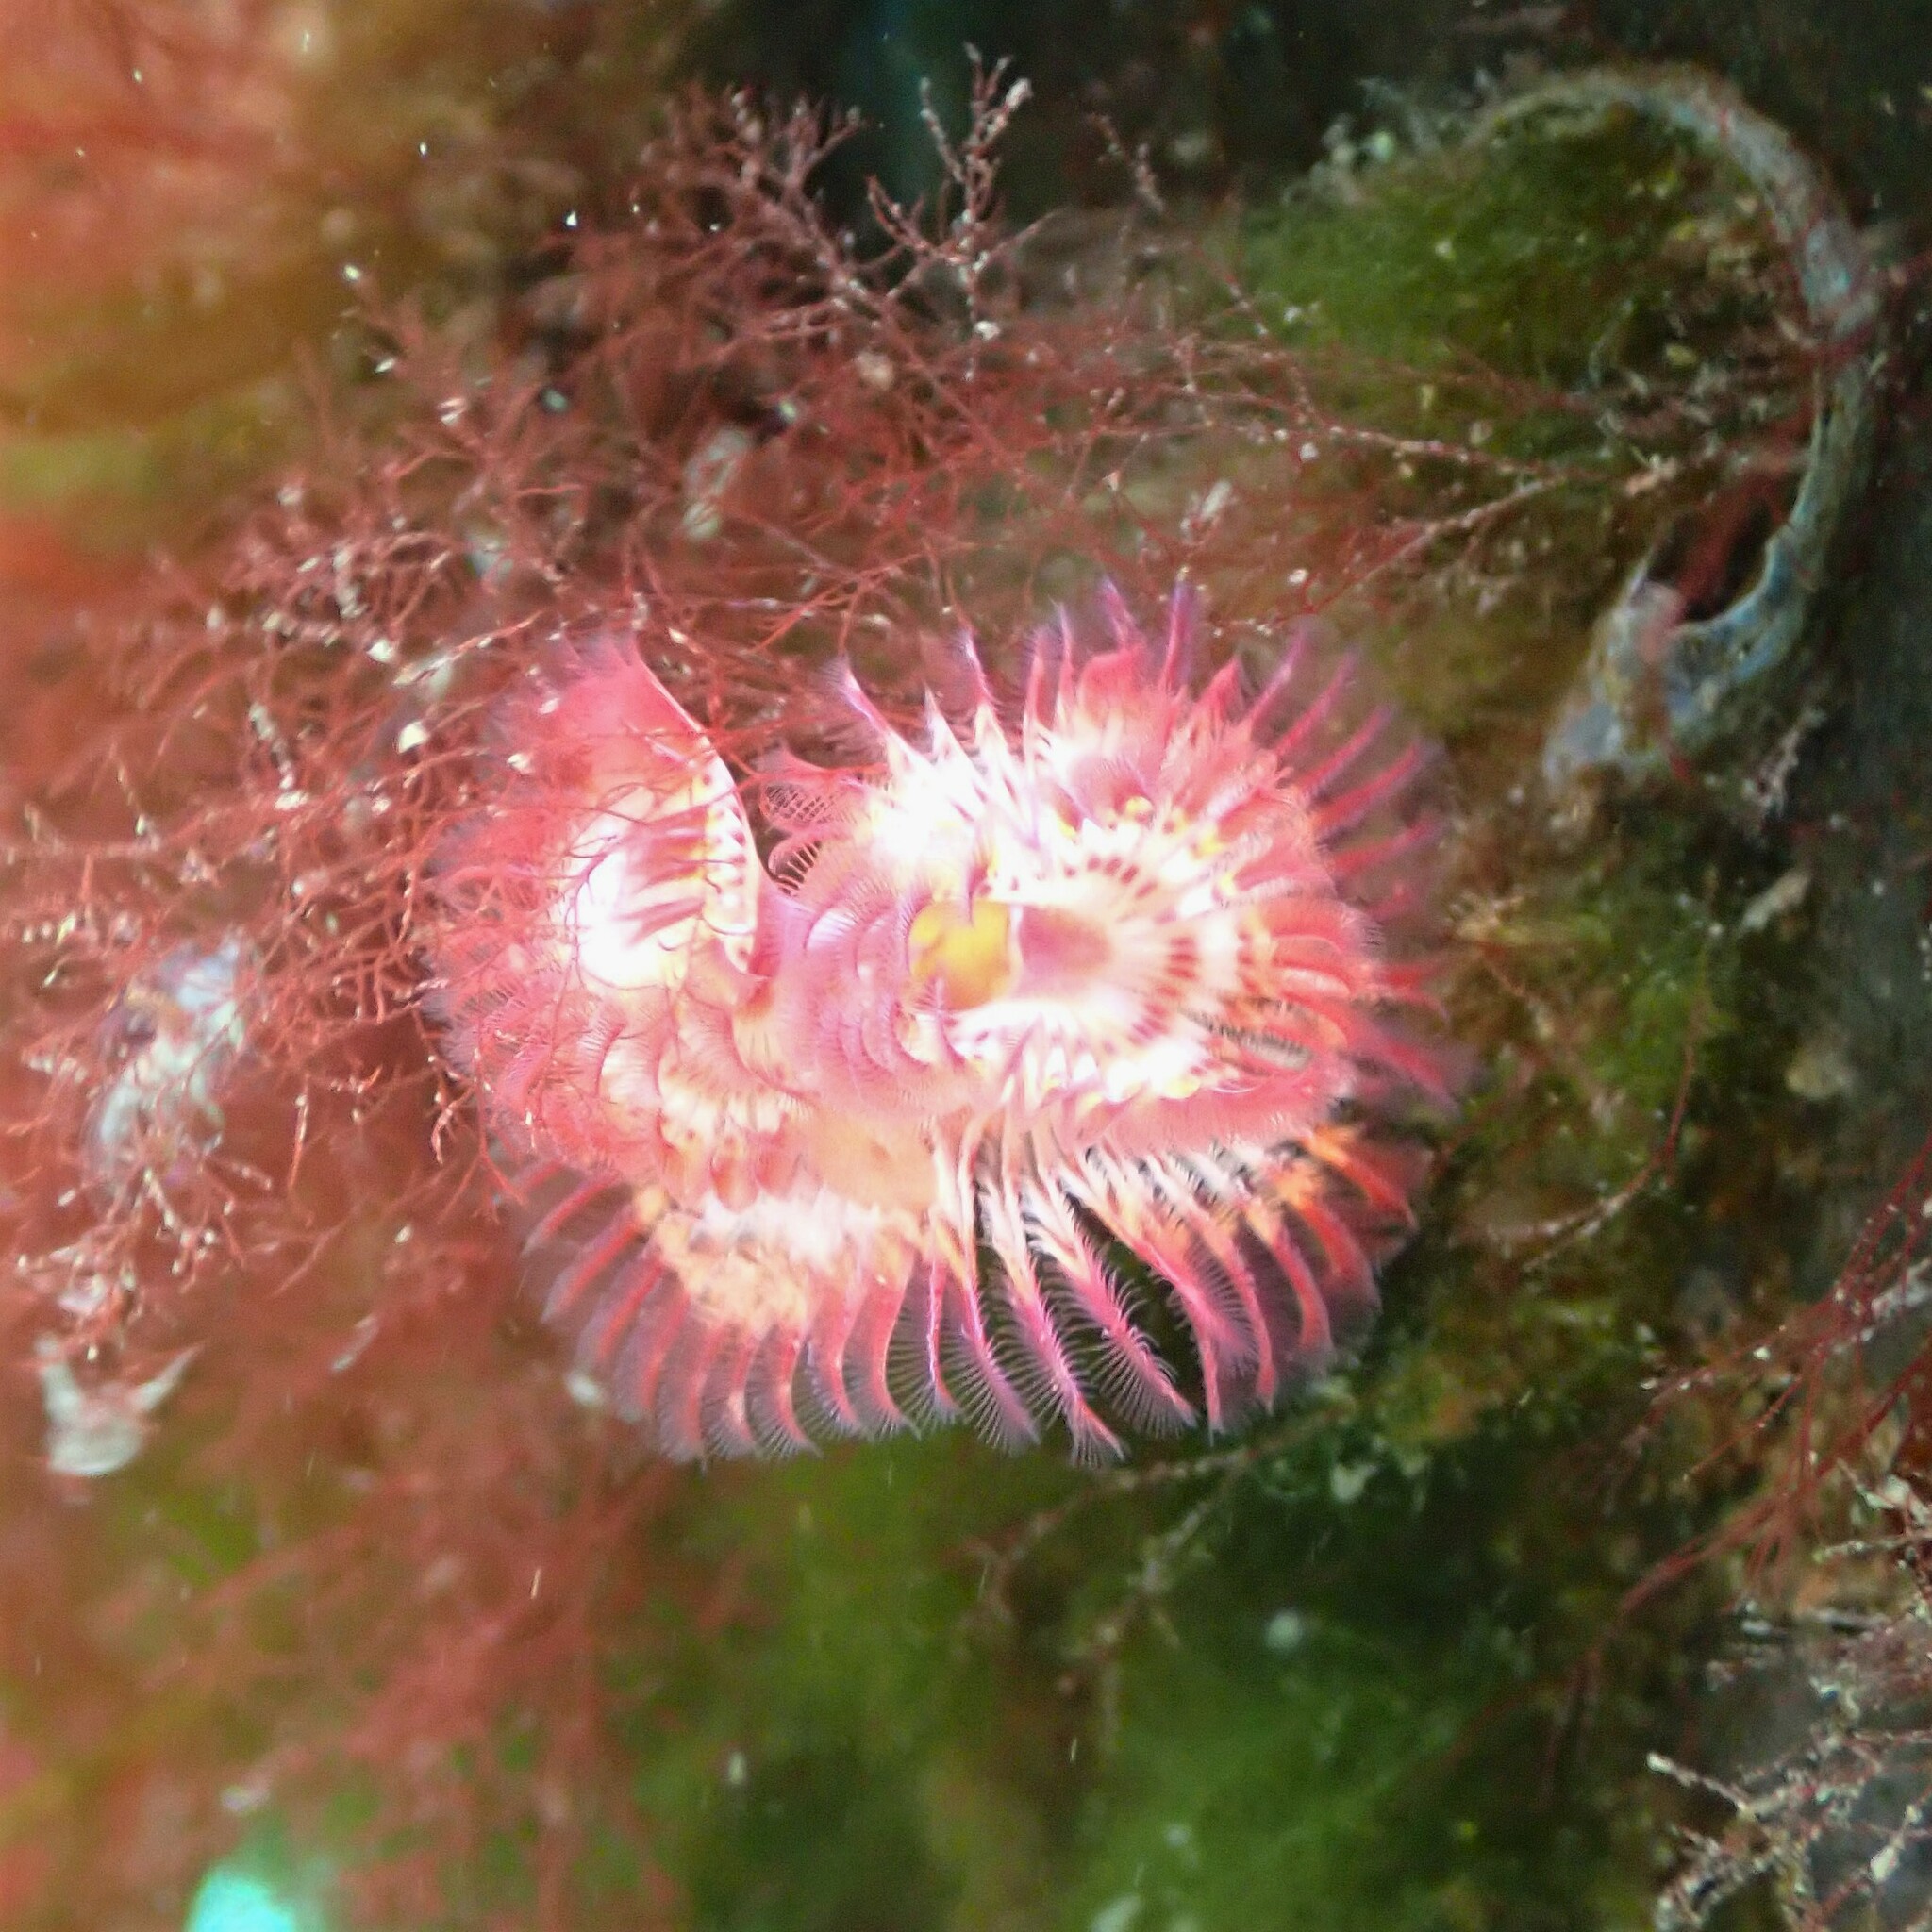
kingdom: Animalia
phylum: Annelida
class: Polychaeta
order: Sabellida
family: Serpulidae
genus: Serpula
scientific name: Serpula columbiana
